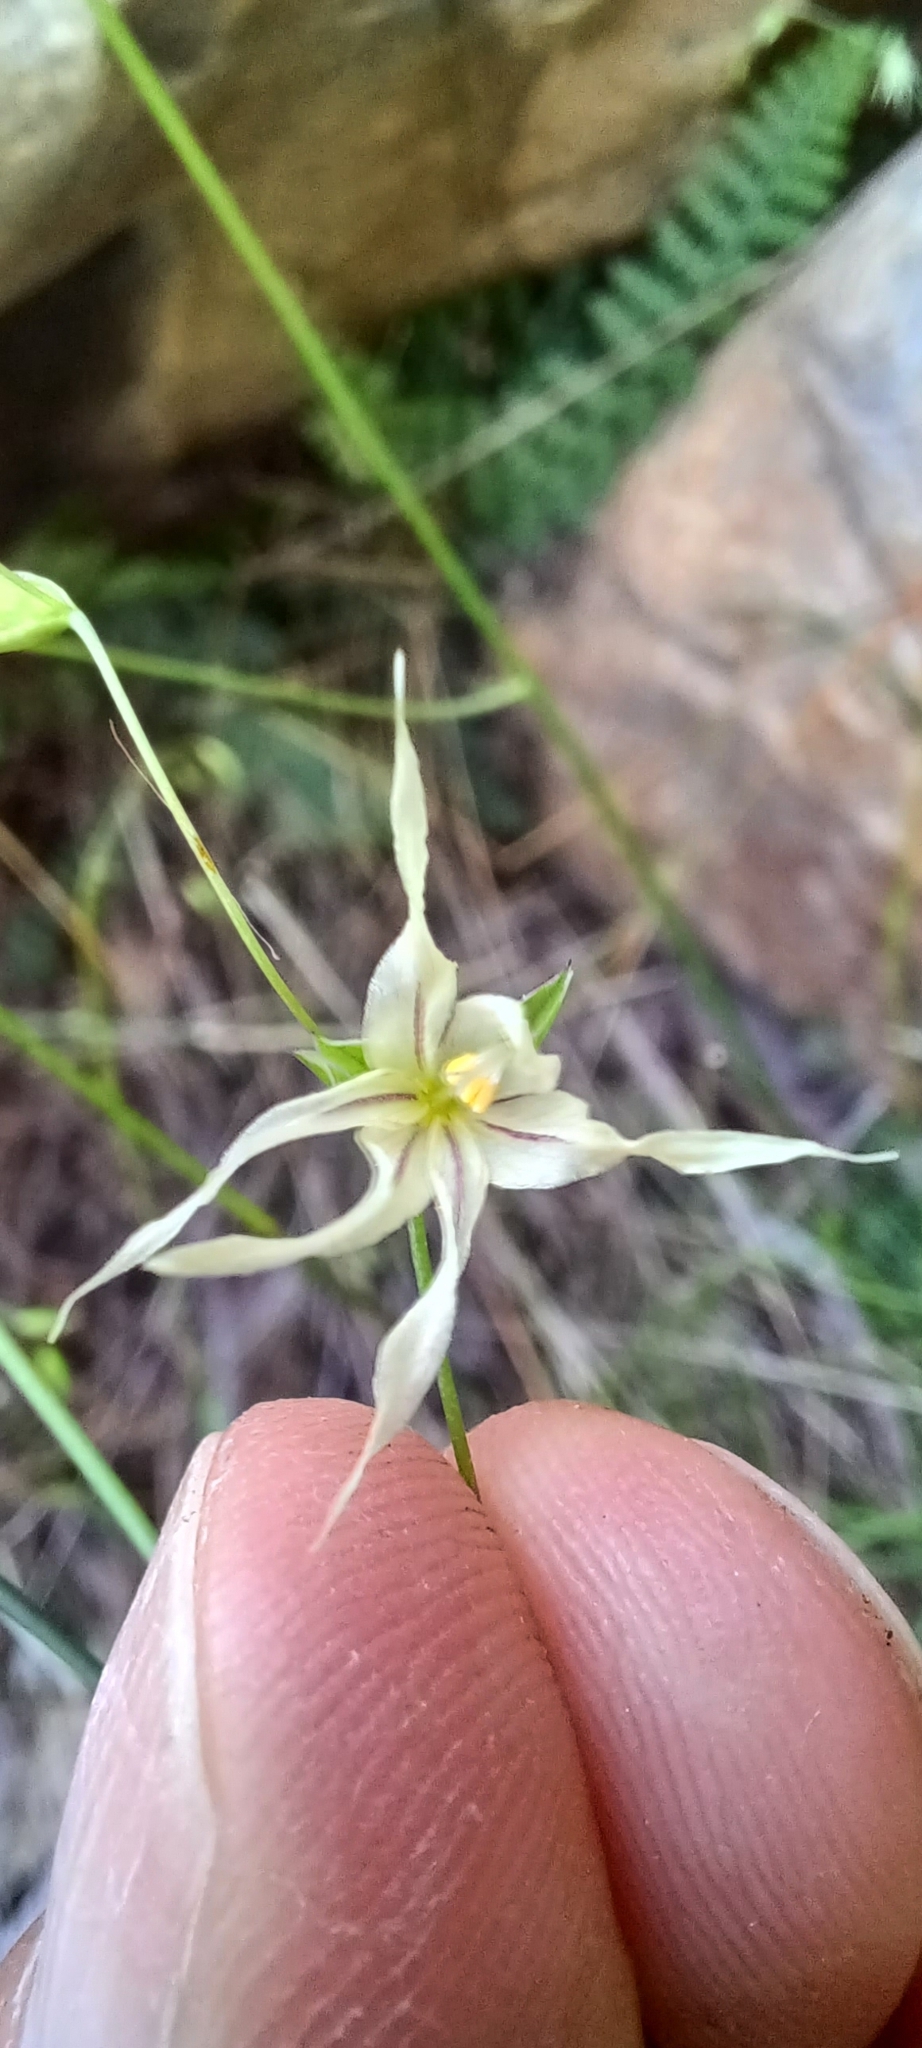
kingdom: Plantae
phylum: Tracheophyta
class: Liliopsida
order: Asparagales
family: Iridaceae
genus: Melasphaerula
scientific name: Melasphaerula graminea
